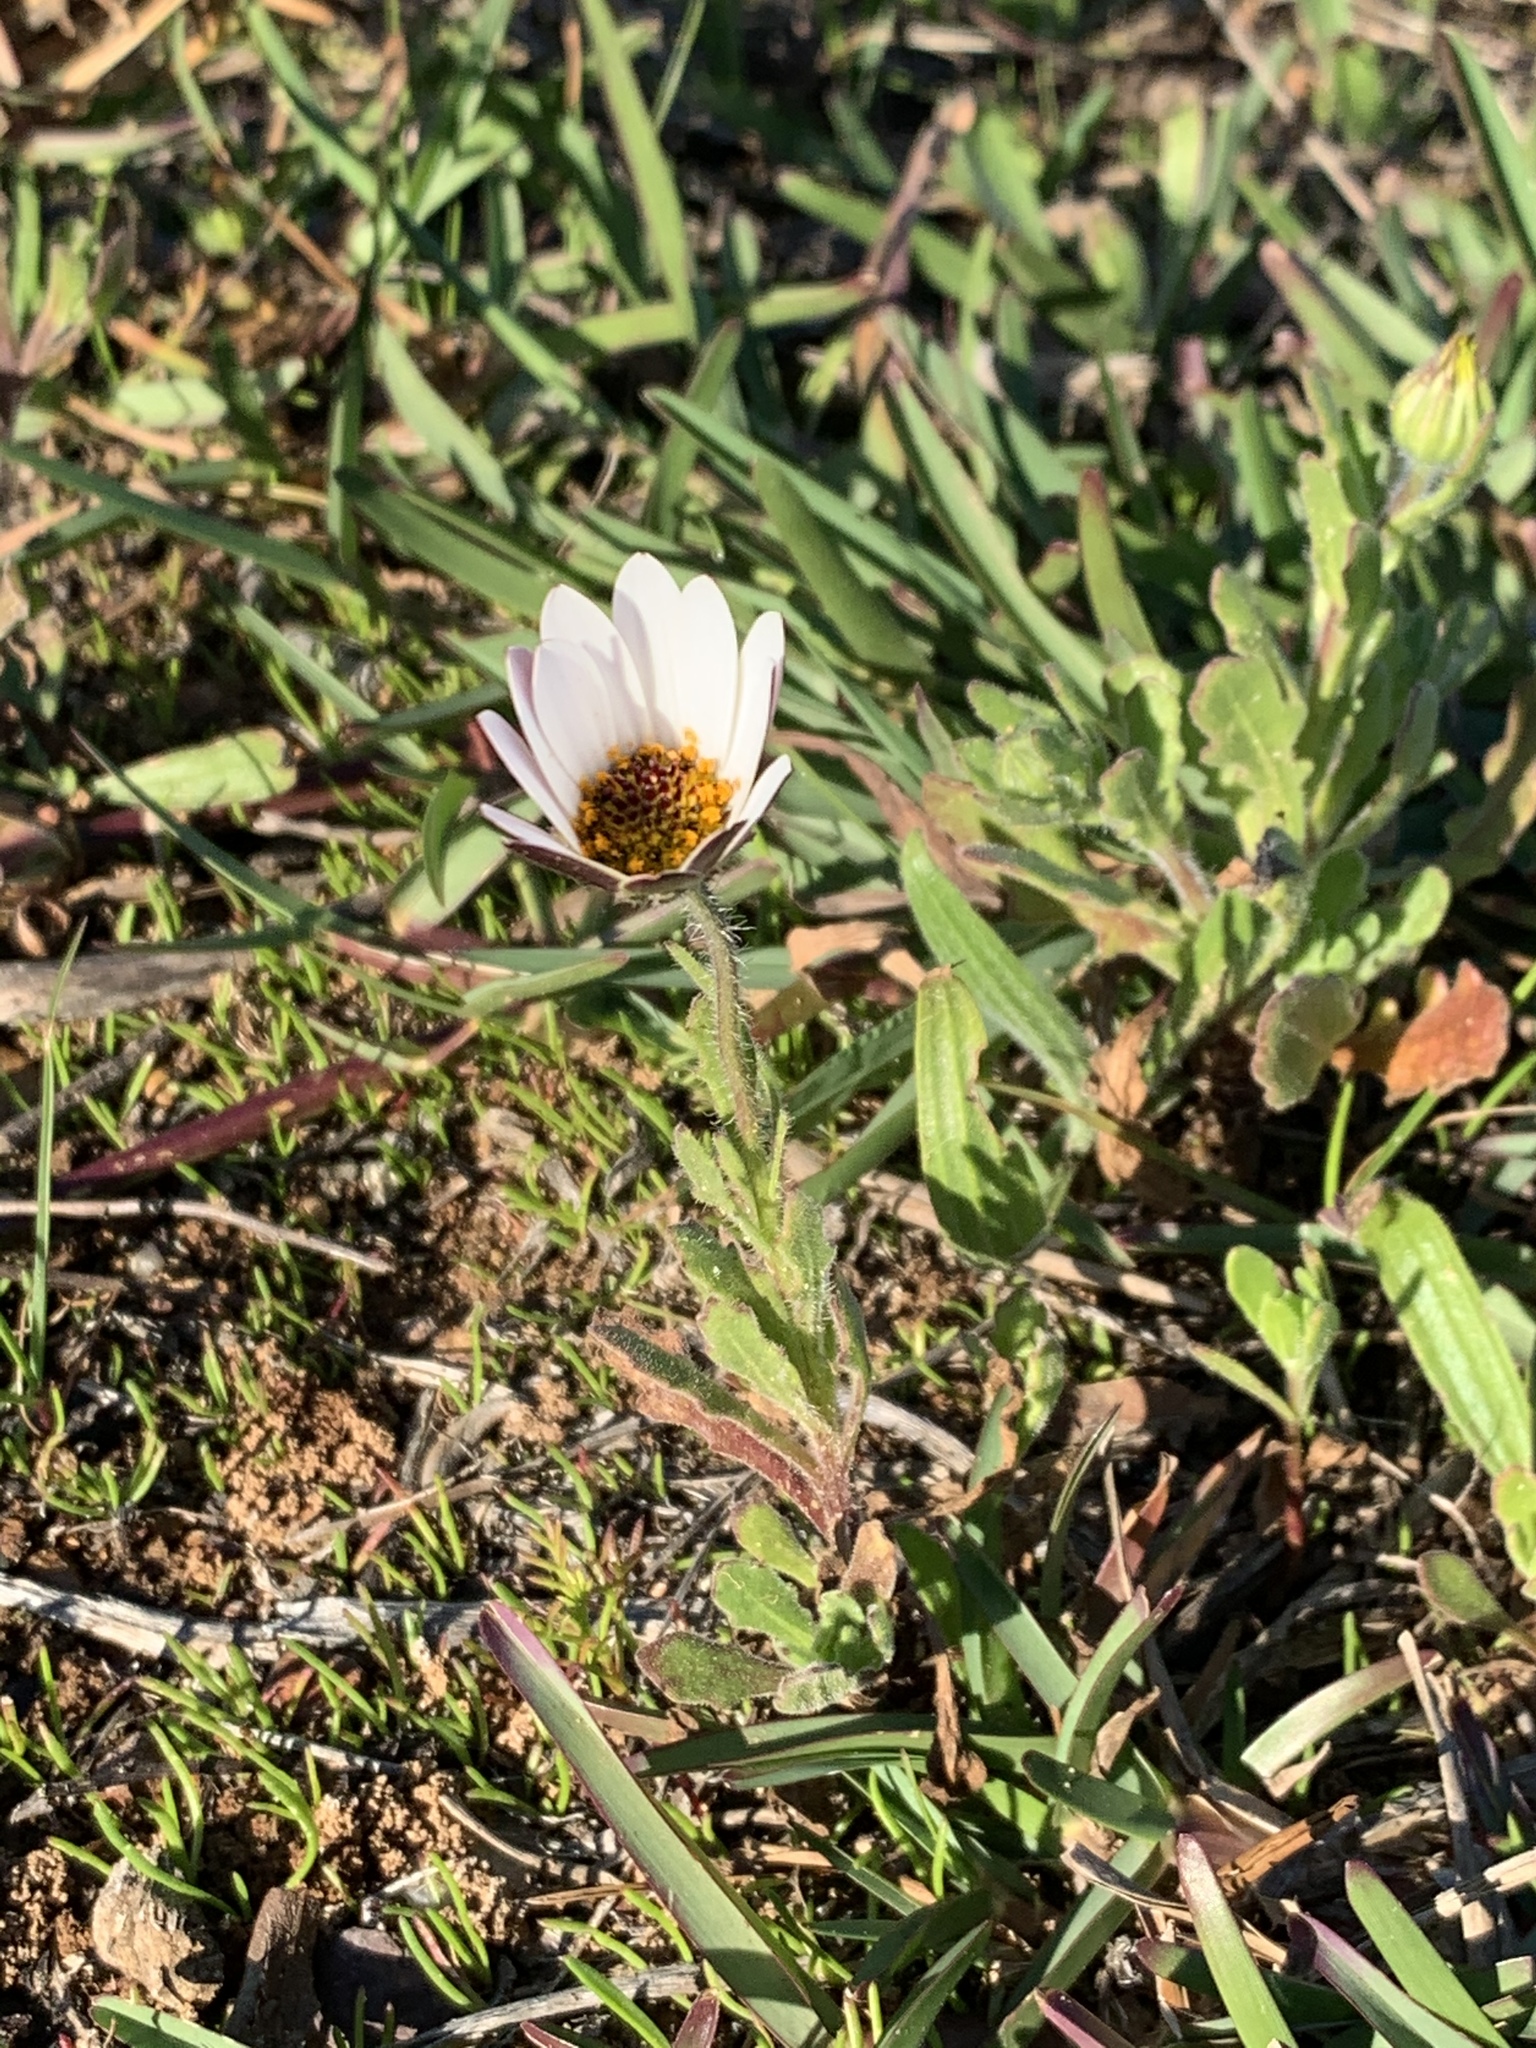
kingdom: Plantae
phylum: Tracheophyta
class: Magnoliopsida
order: Asterales
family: Asteraceae
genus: Dimorphotheca
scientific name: Dimorphotheca pluvialis
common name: Weather prophet
